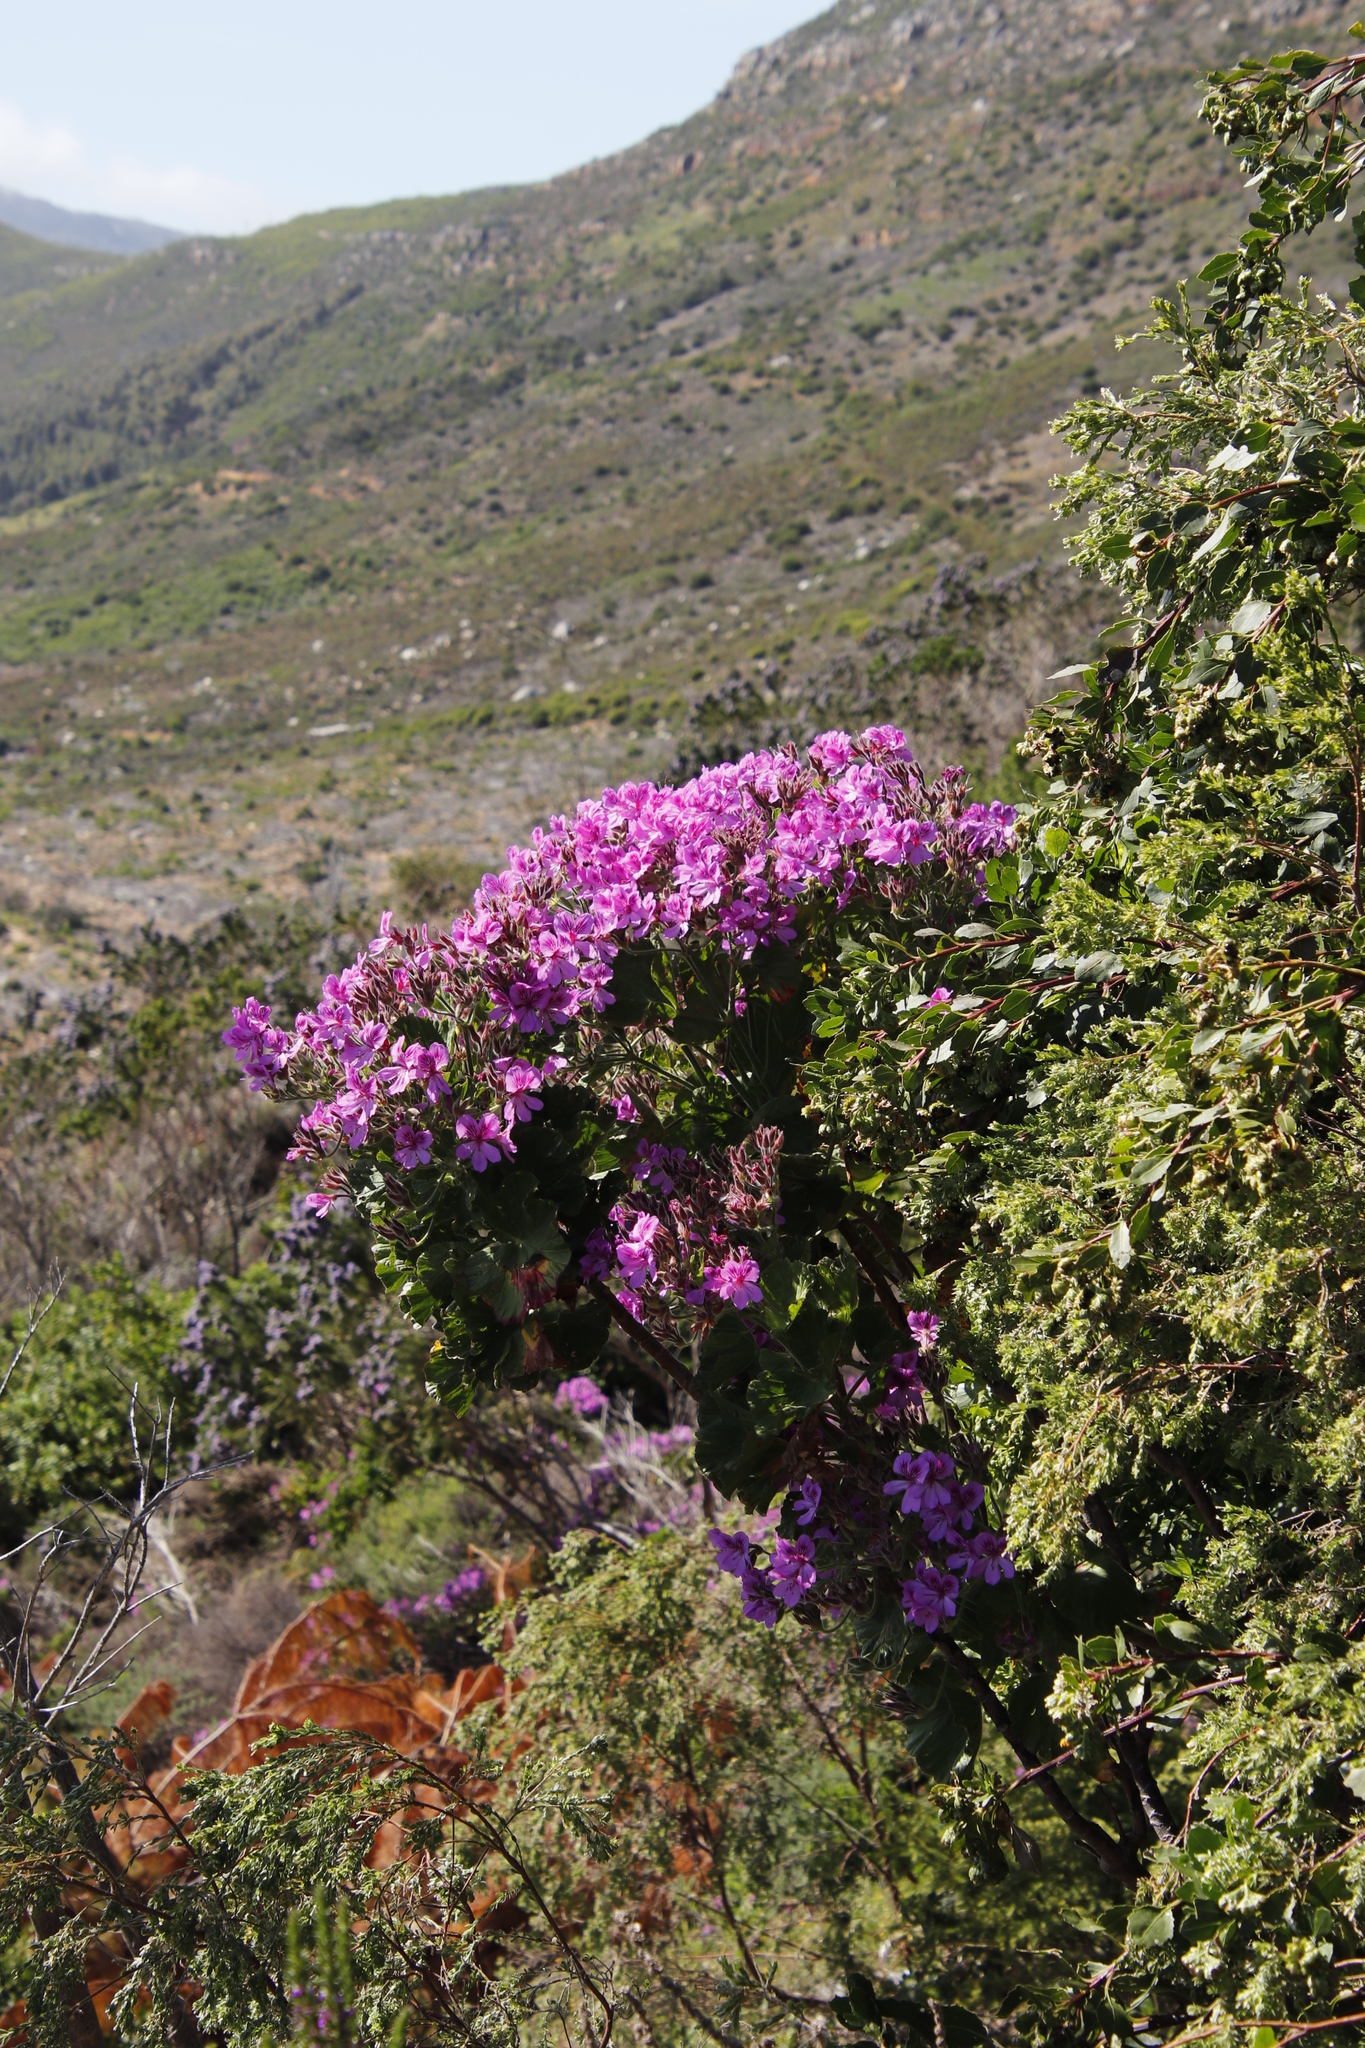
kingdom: Plantae
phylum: Tracheophyta
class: Magnoliopsida
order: Geraniales
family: Geraniaceae
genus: Pelargonium
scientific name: Pelargonium cucullatum
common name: Tree pelargonium
